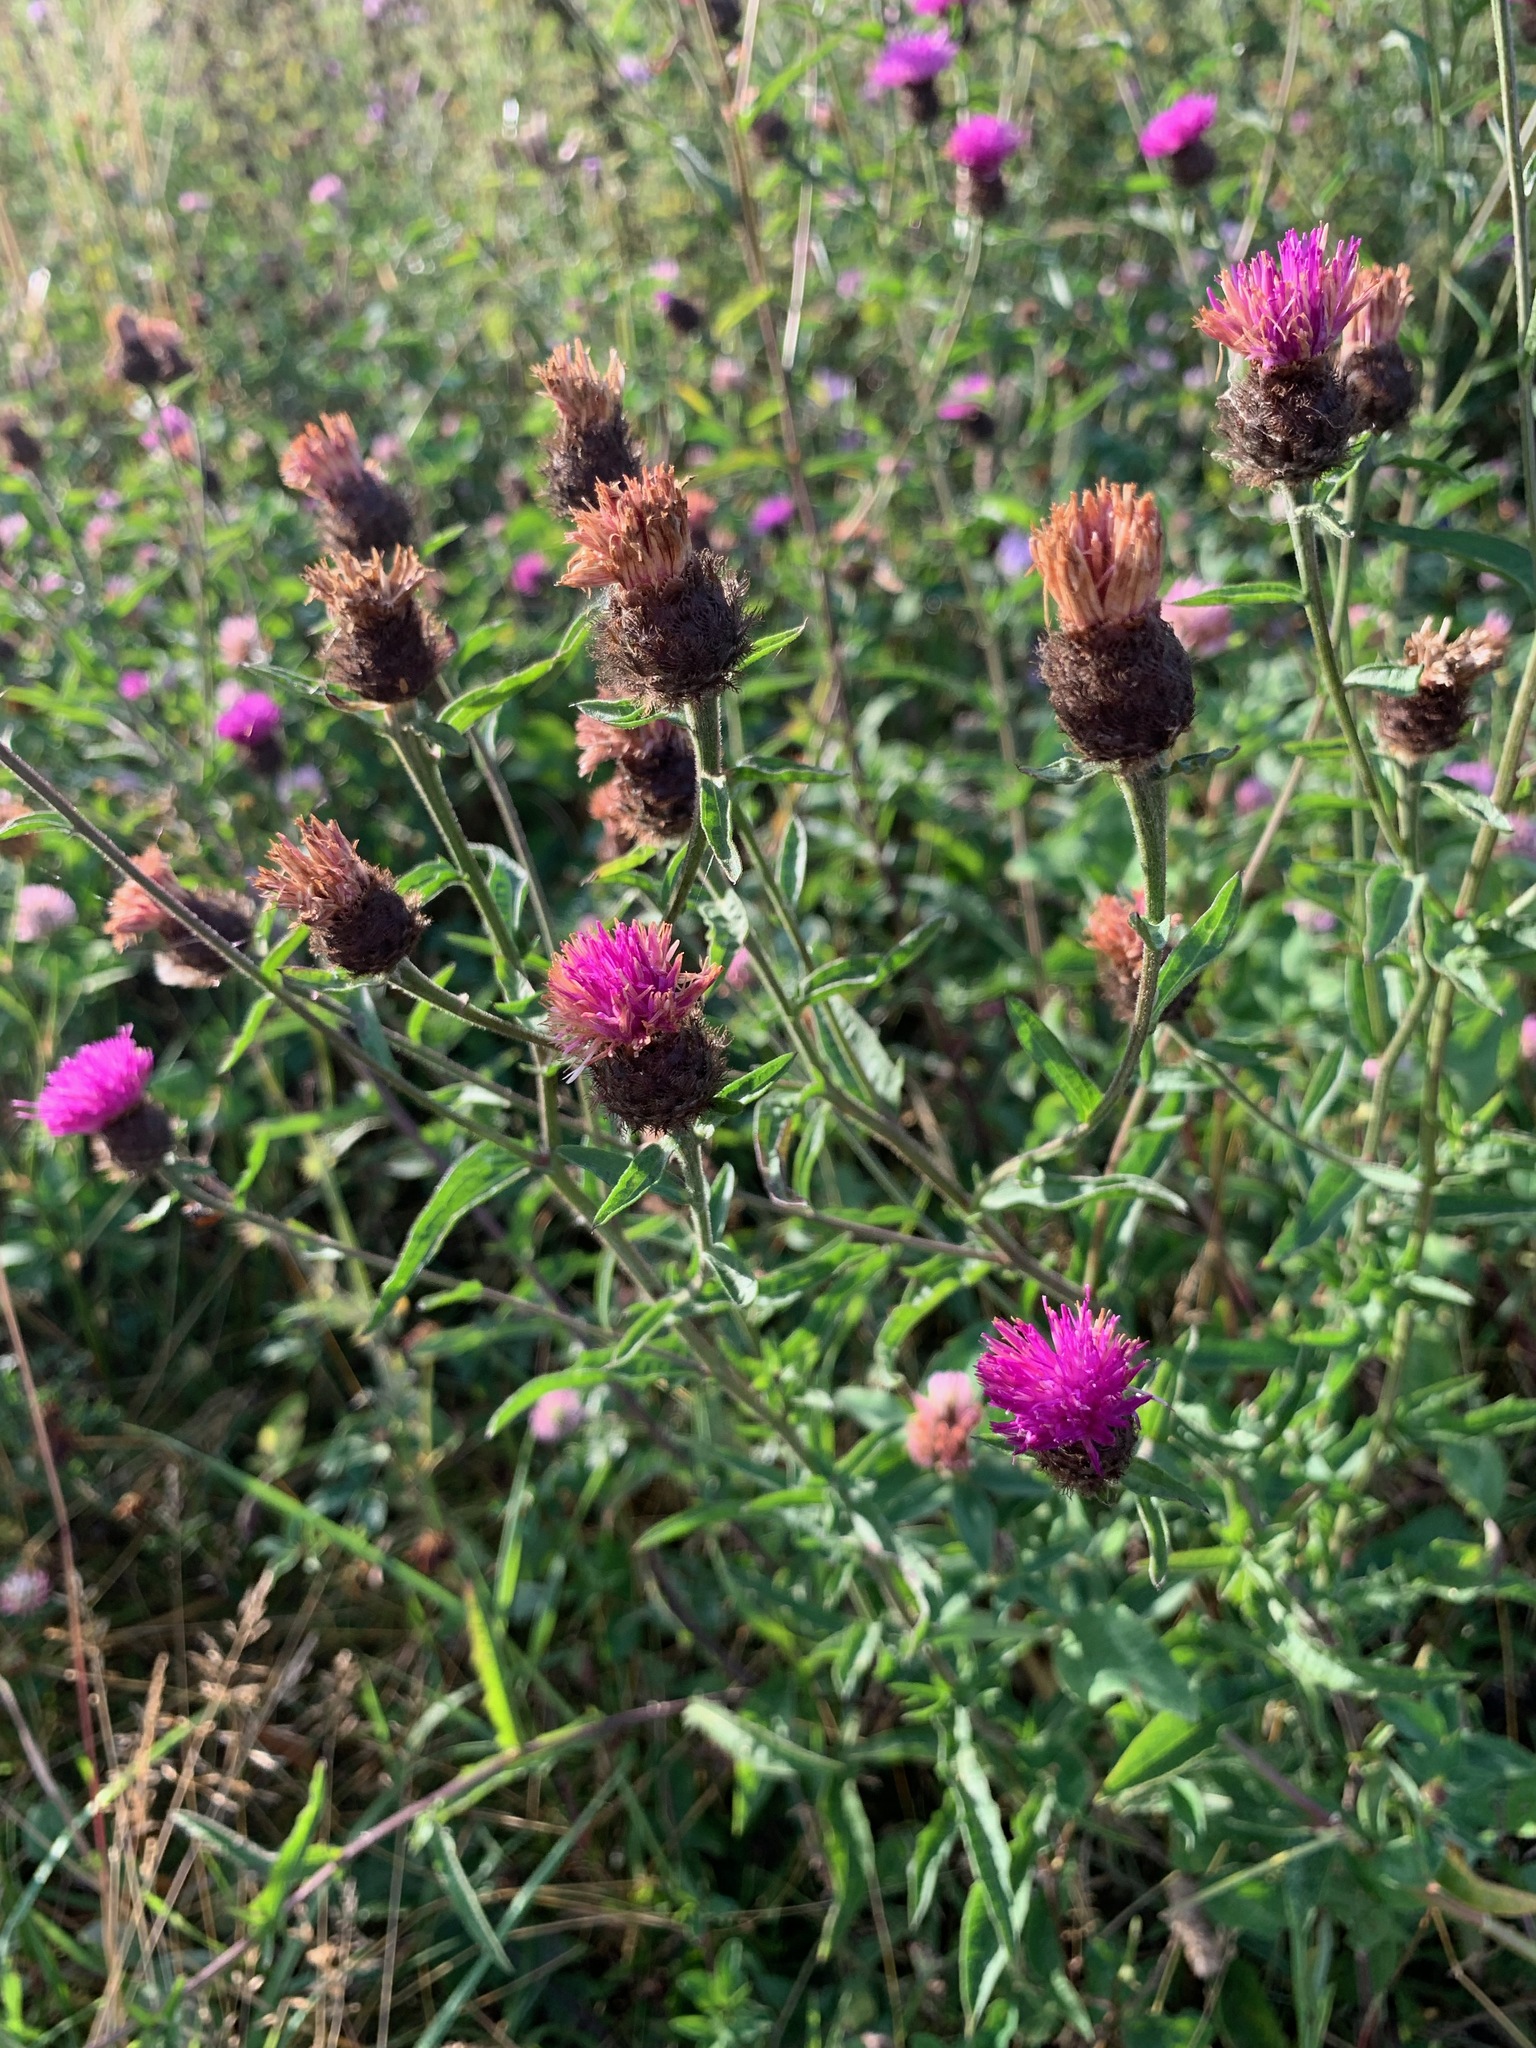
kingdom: Plantae
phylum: Tracheophyta
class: Magnoliopsida
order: Asterales
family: Asteraceae
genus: Centaurea
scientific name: Centaurea nigra
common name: Lesser knapweed
